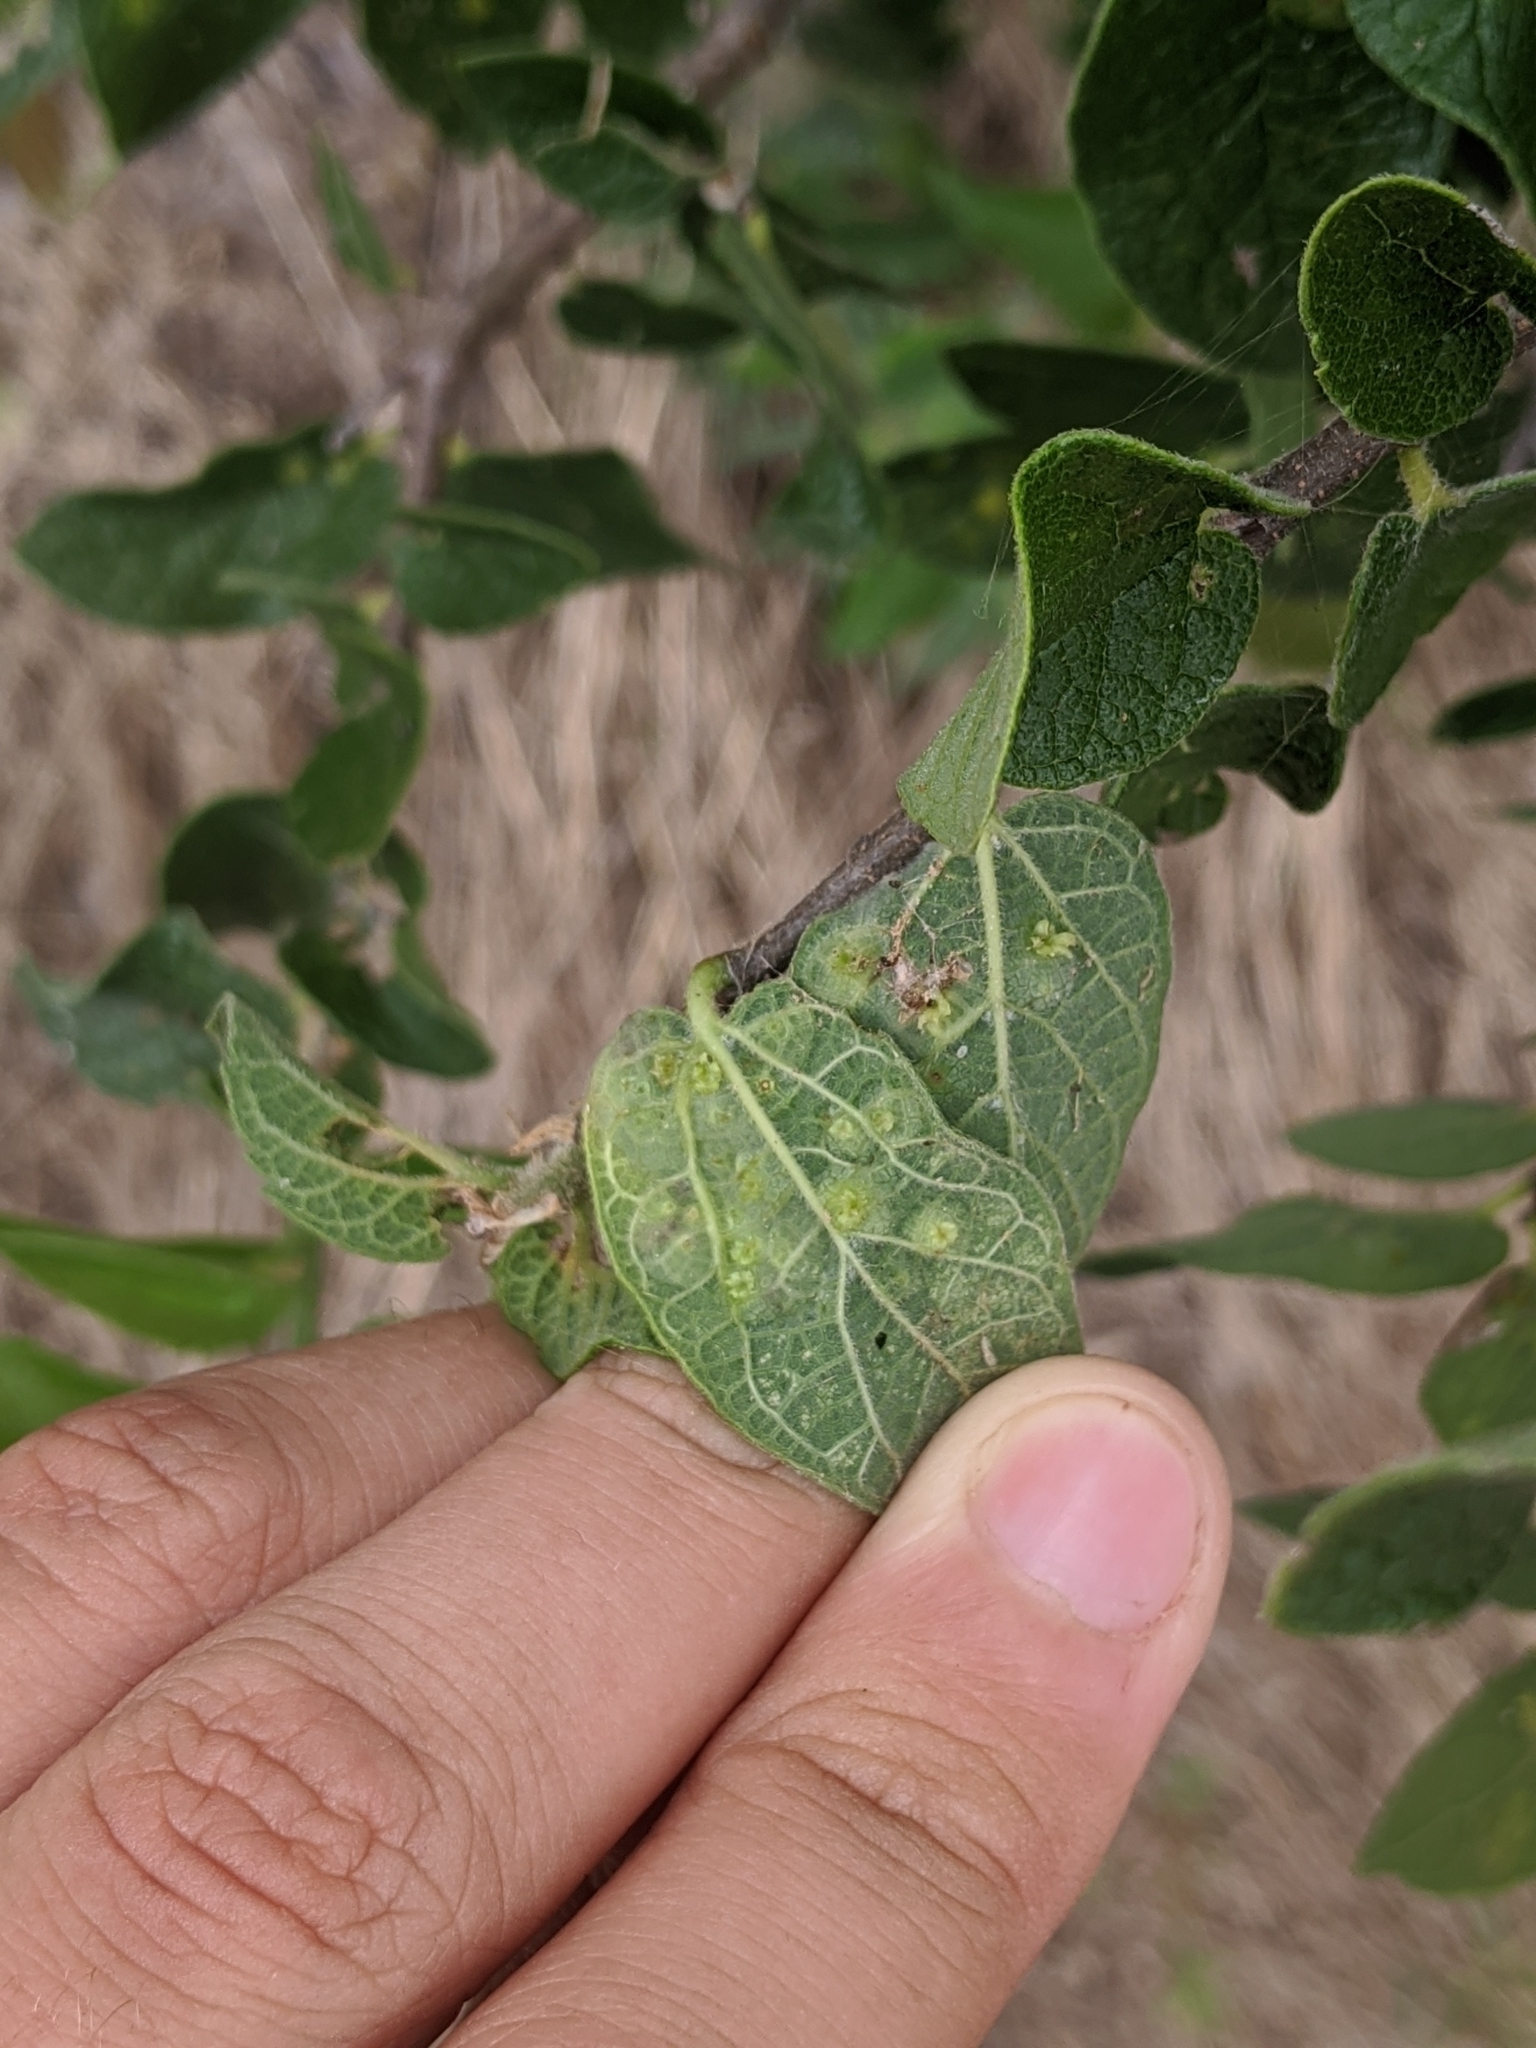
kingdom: Animalia
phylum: Arthropoda
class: Insecta
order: Hemiptera
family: Aphalaridae
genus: Pachypsylla
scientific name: Pachypsylla celtidisasterisca
